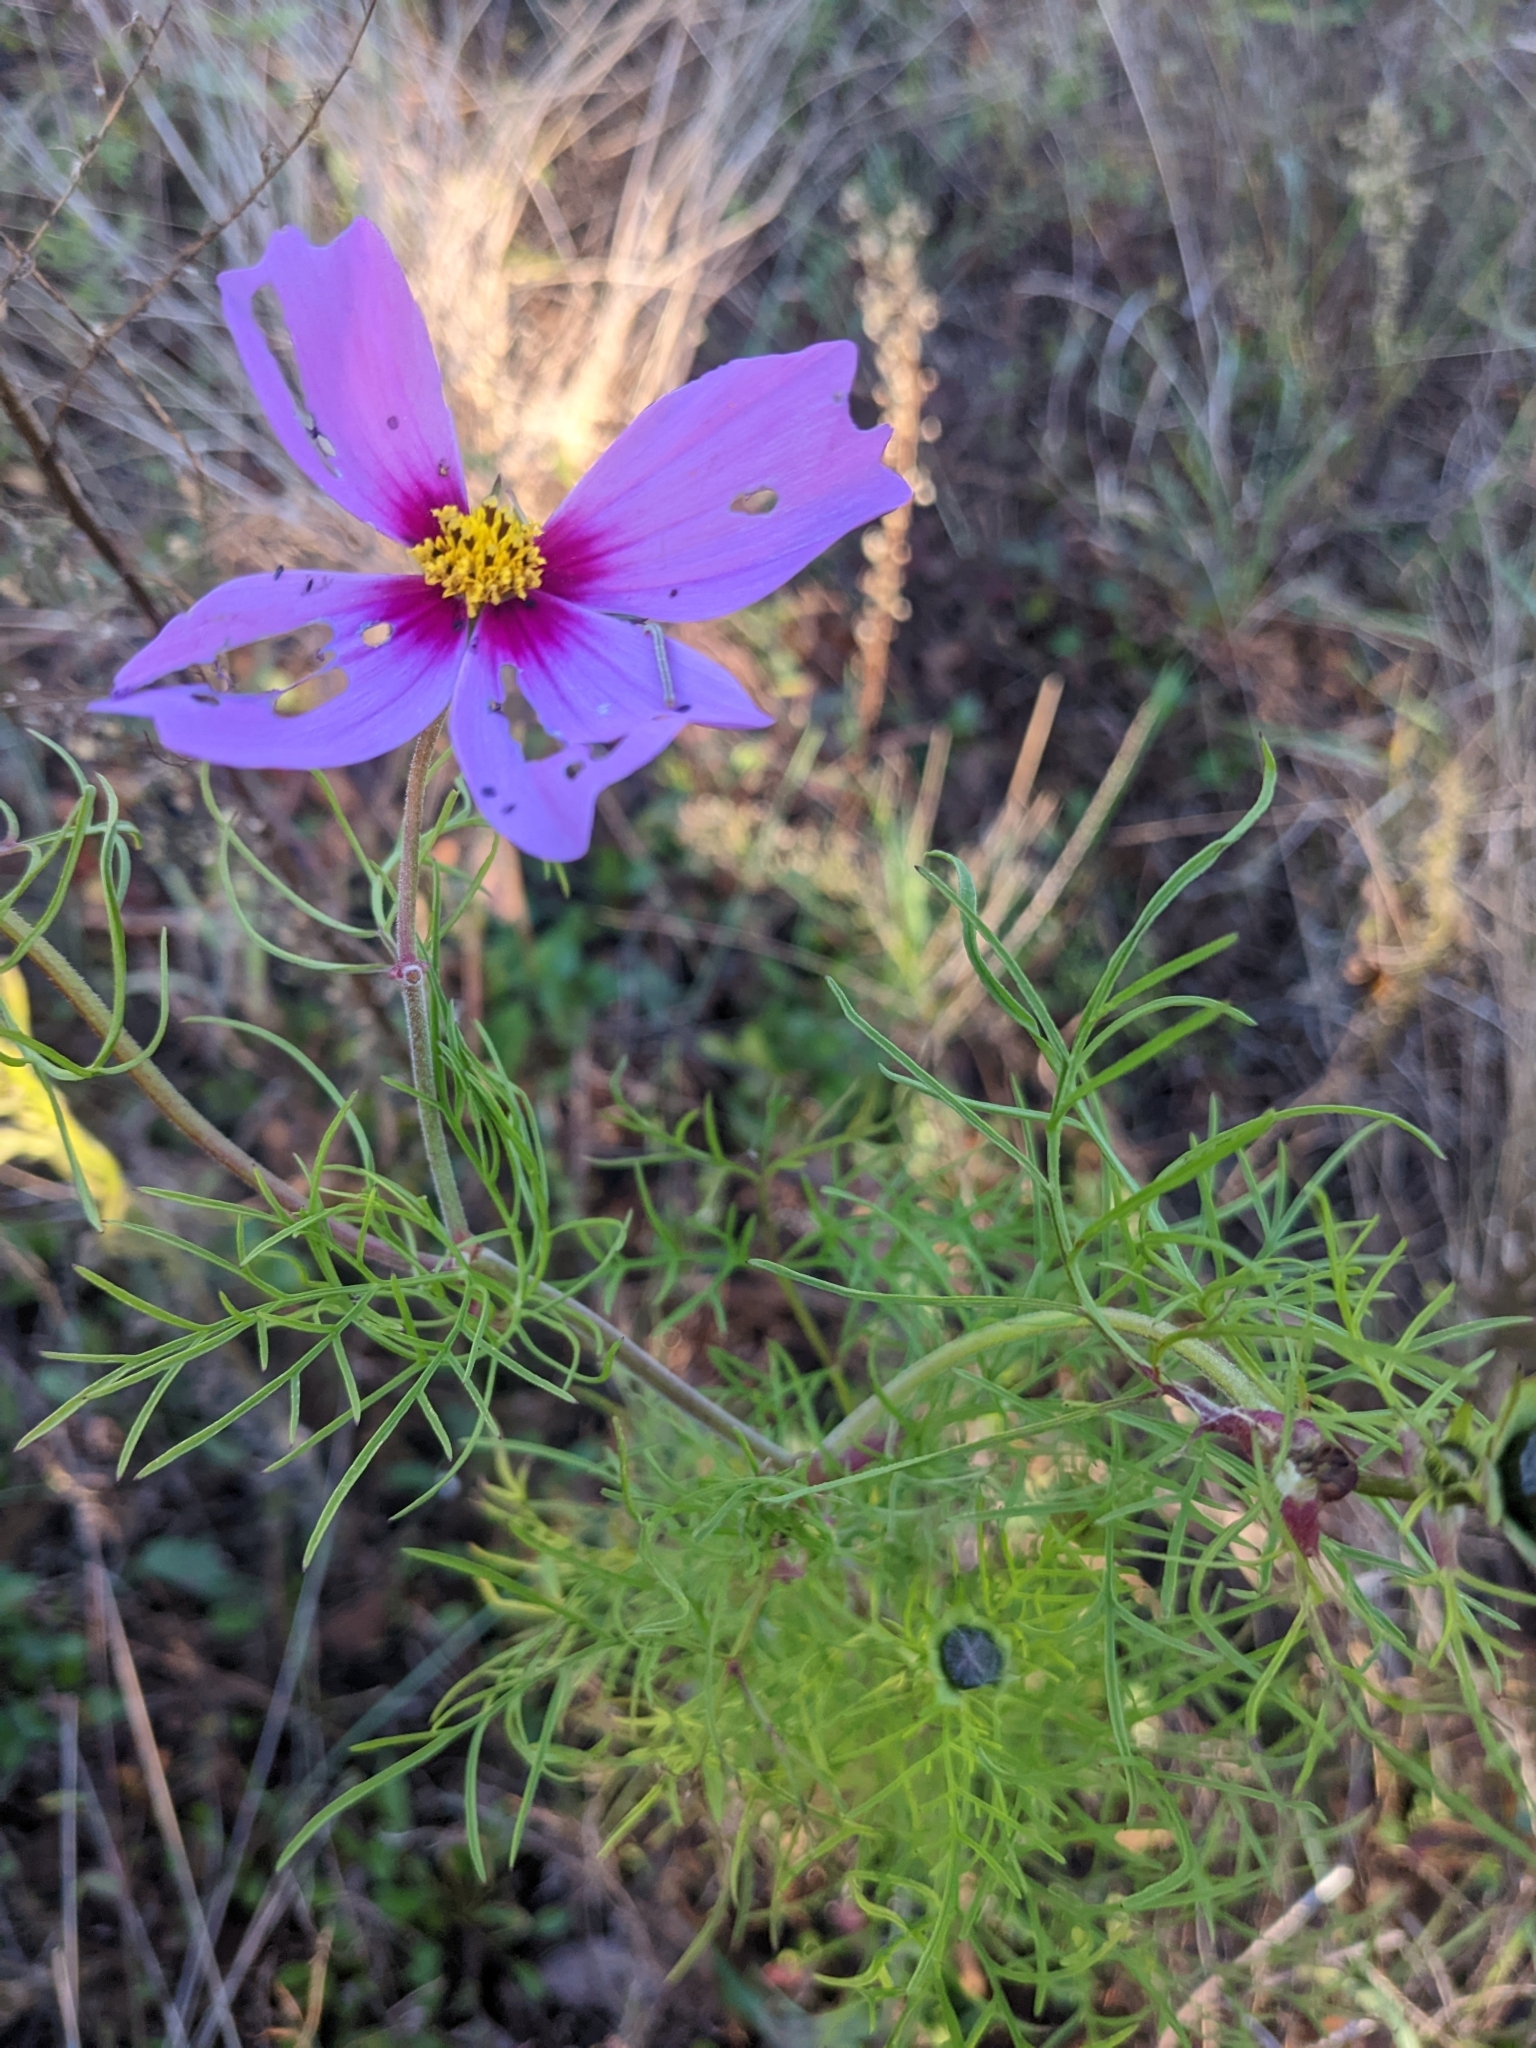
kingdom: Plantae
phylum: Tracheophyta
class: Magnoliopsida
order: Asterales
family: Asteraceae
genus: Cosmos
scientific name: Cosmos bipinnatus
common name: Garden cosmos
